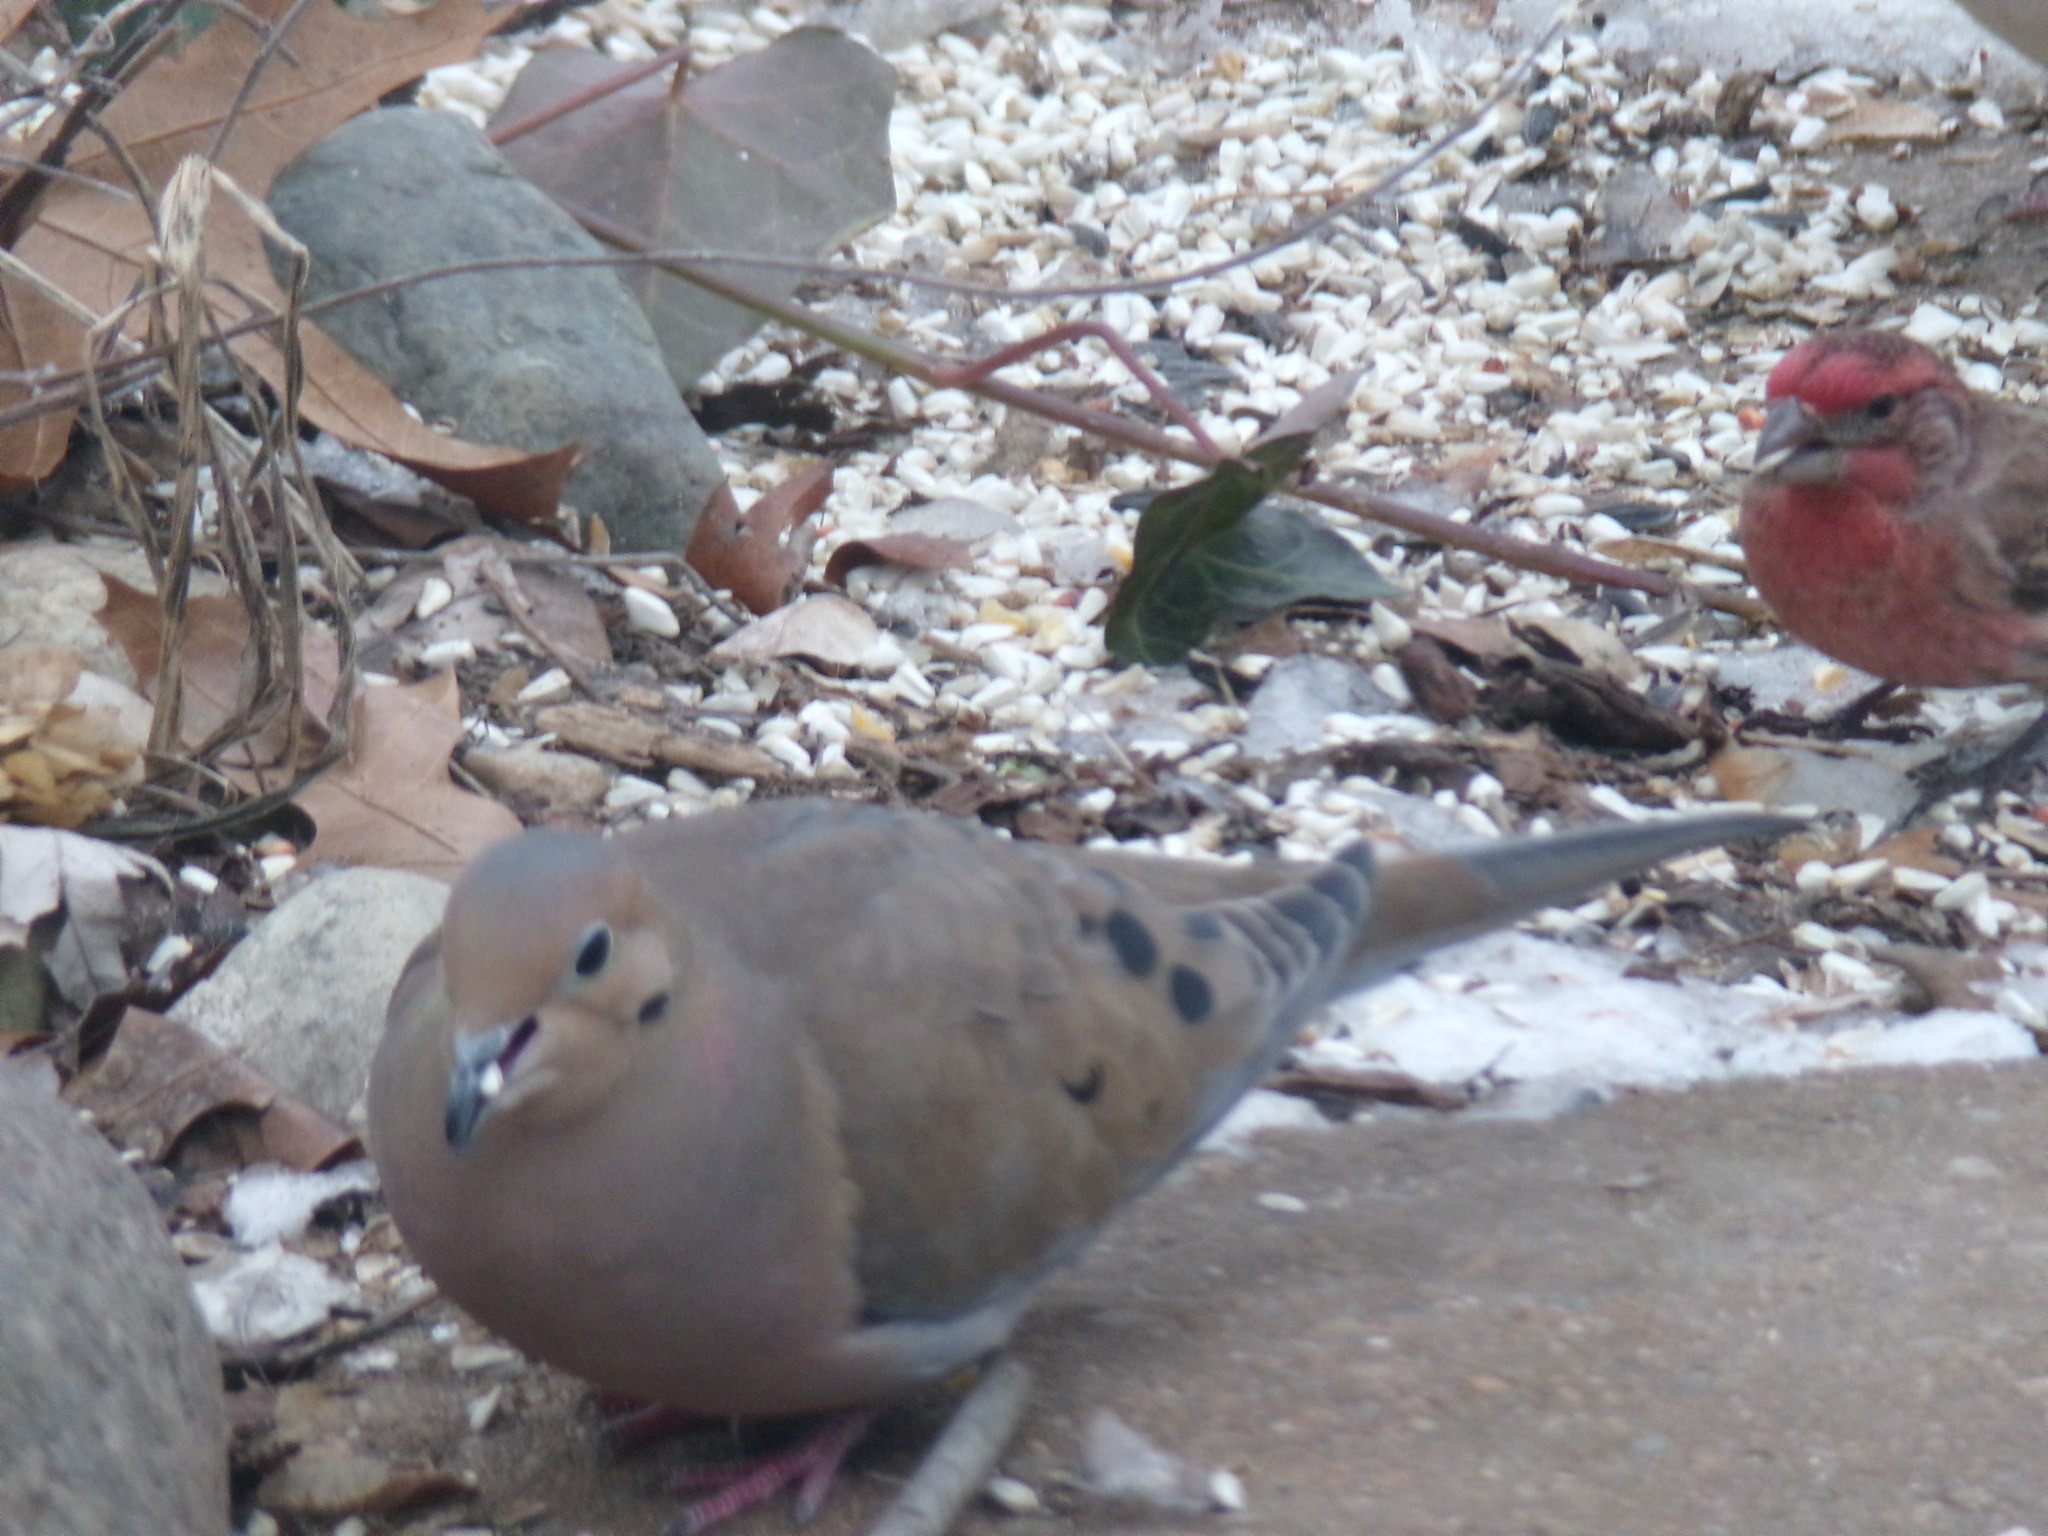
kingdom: Animalia
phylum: Chordata
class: Aves
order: Columbiformes
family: Columbidae
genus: Zenaida
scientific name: Zenaida macroura
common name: Mourning dove
